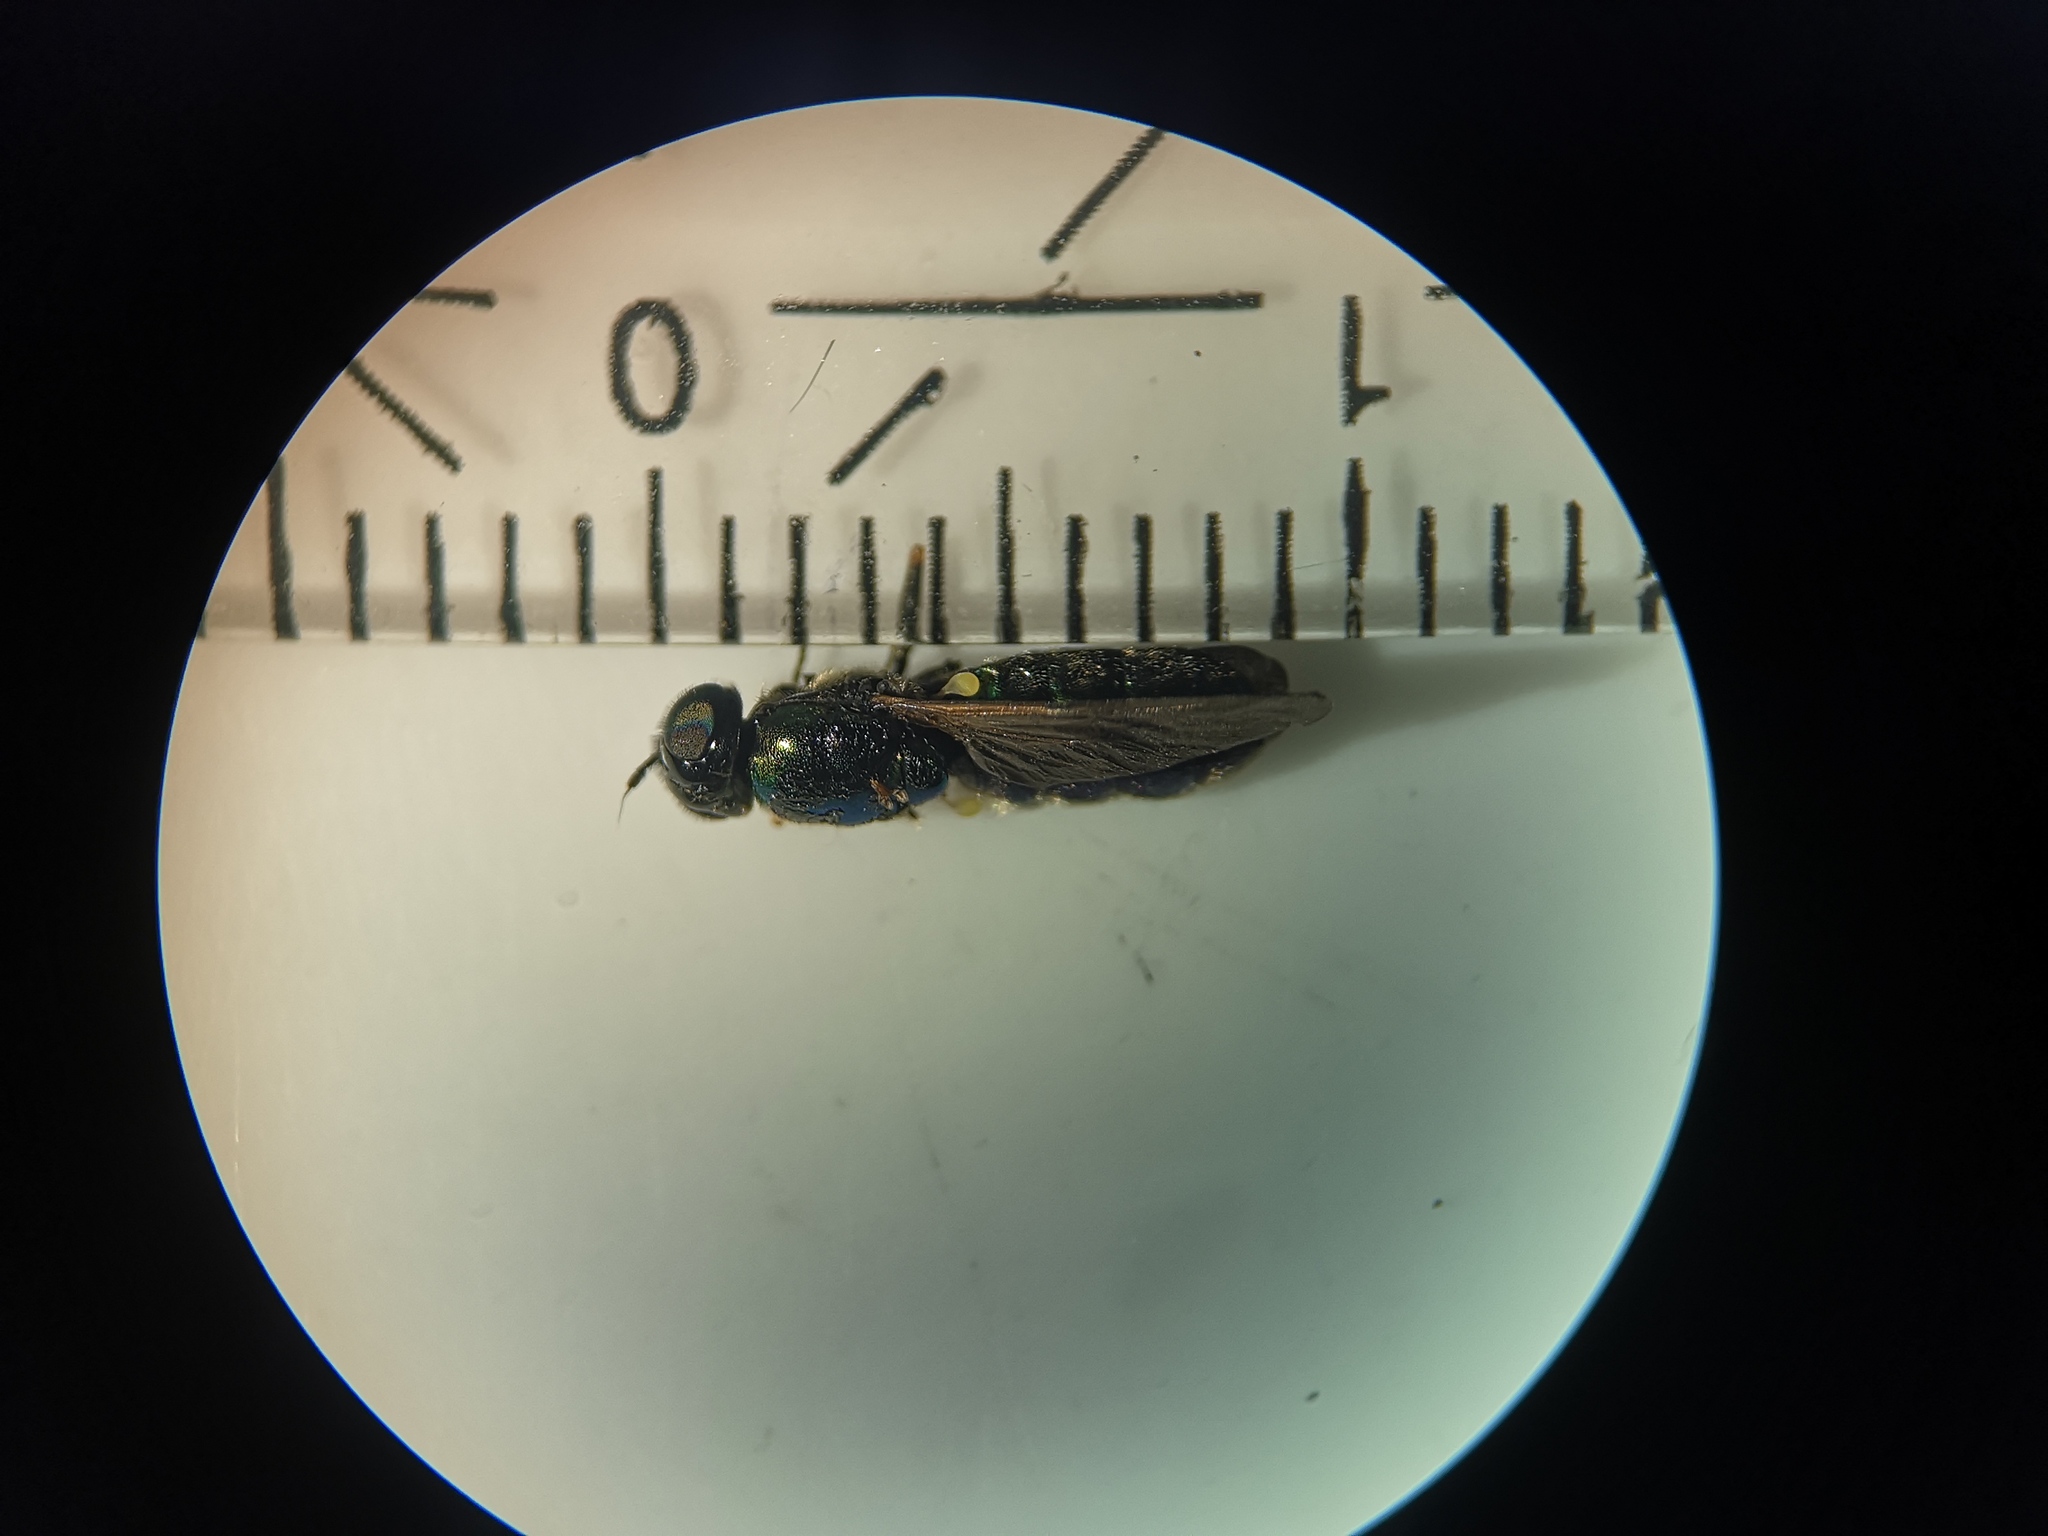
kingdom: Animalia
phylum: Arthropoda
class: Insecta
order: Diptera
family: Stratiomyidae
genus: Chloromyia
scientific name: Chloromyia formosa
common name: Soldier fly
